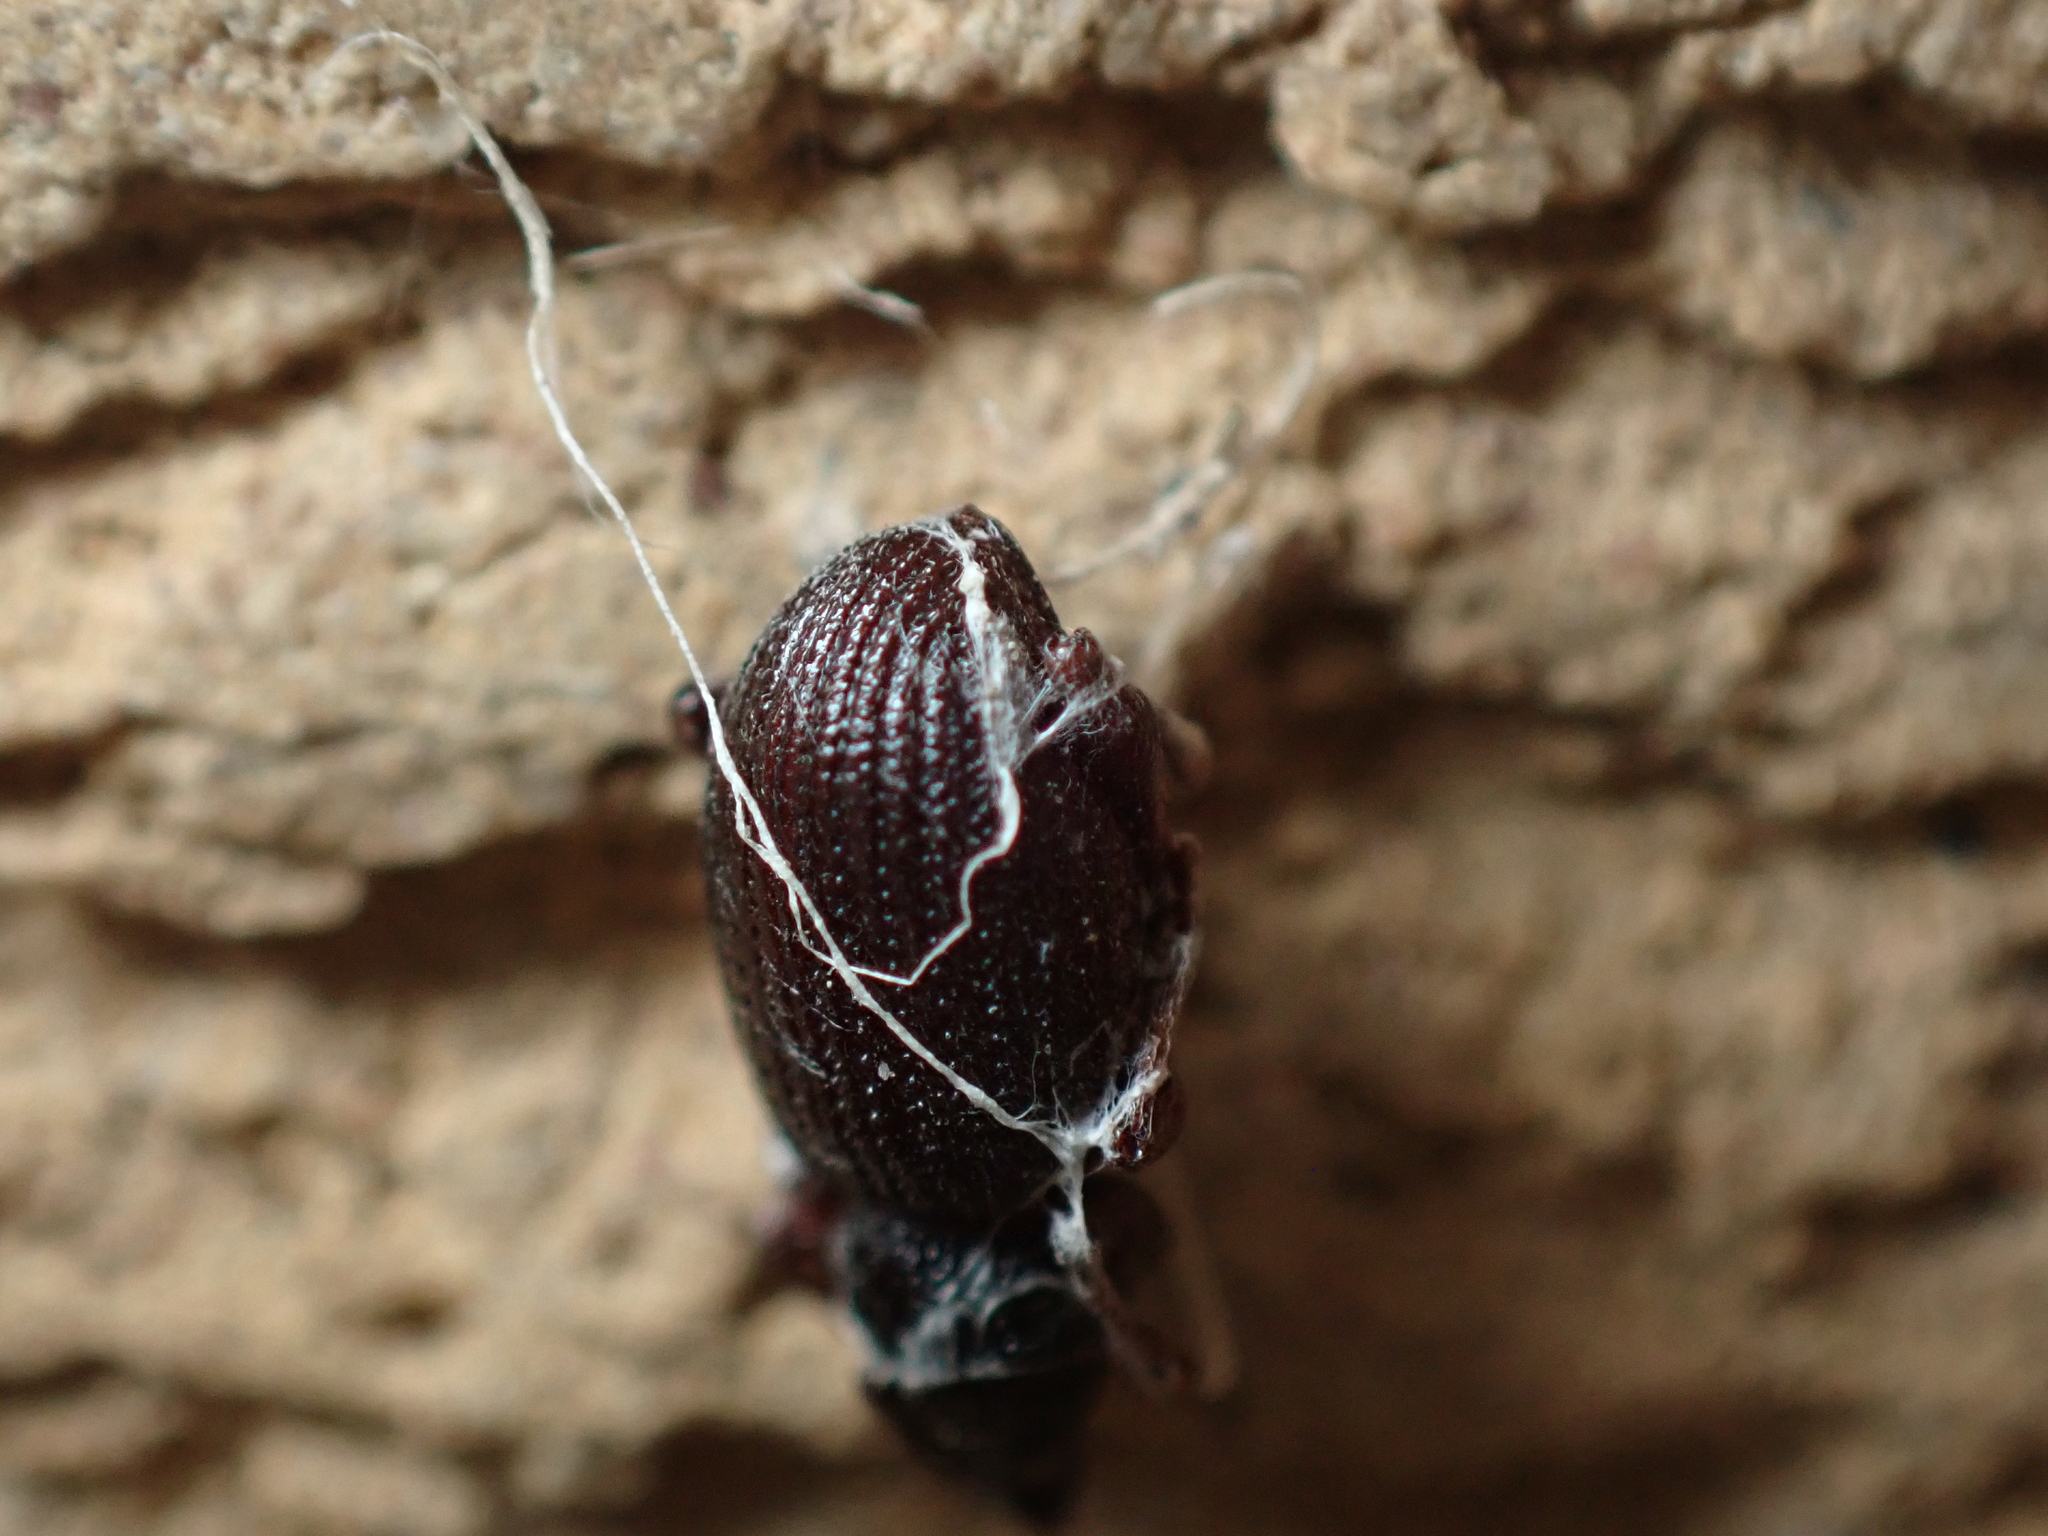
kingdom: Animalia
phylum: Arthropoda
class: Insecta
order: Coleoptera
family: Curculionidae
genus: Otiorhynchus
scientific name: Otiorhynchus ovatus
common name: Strawberry root weevil
